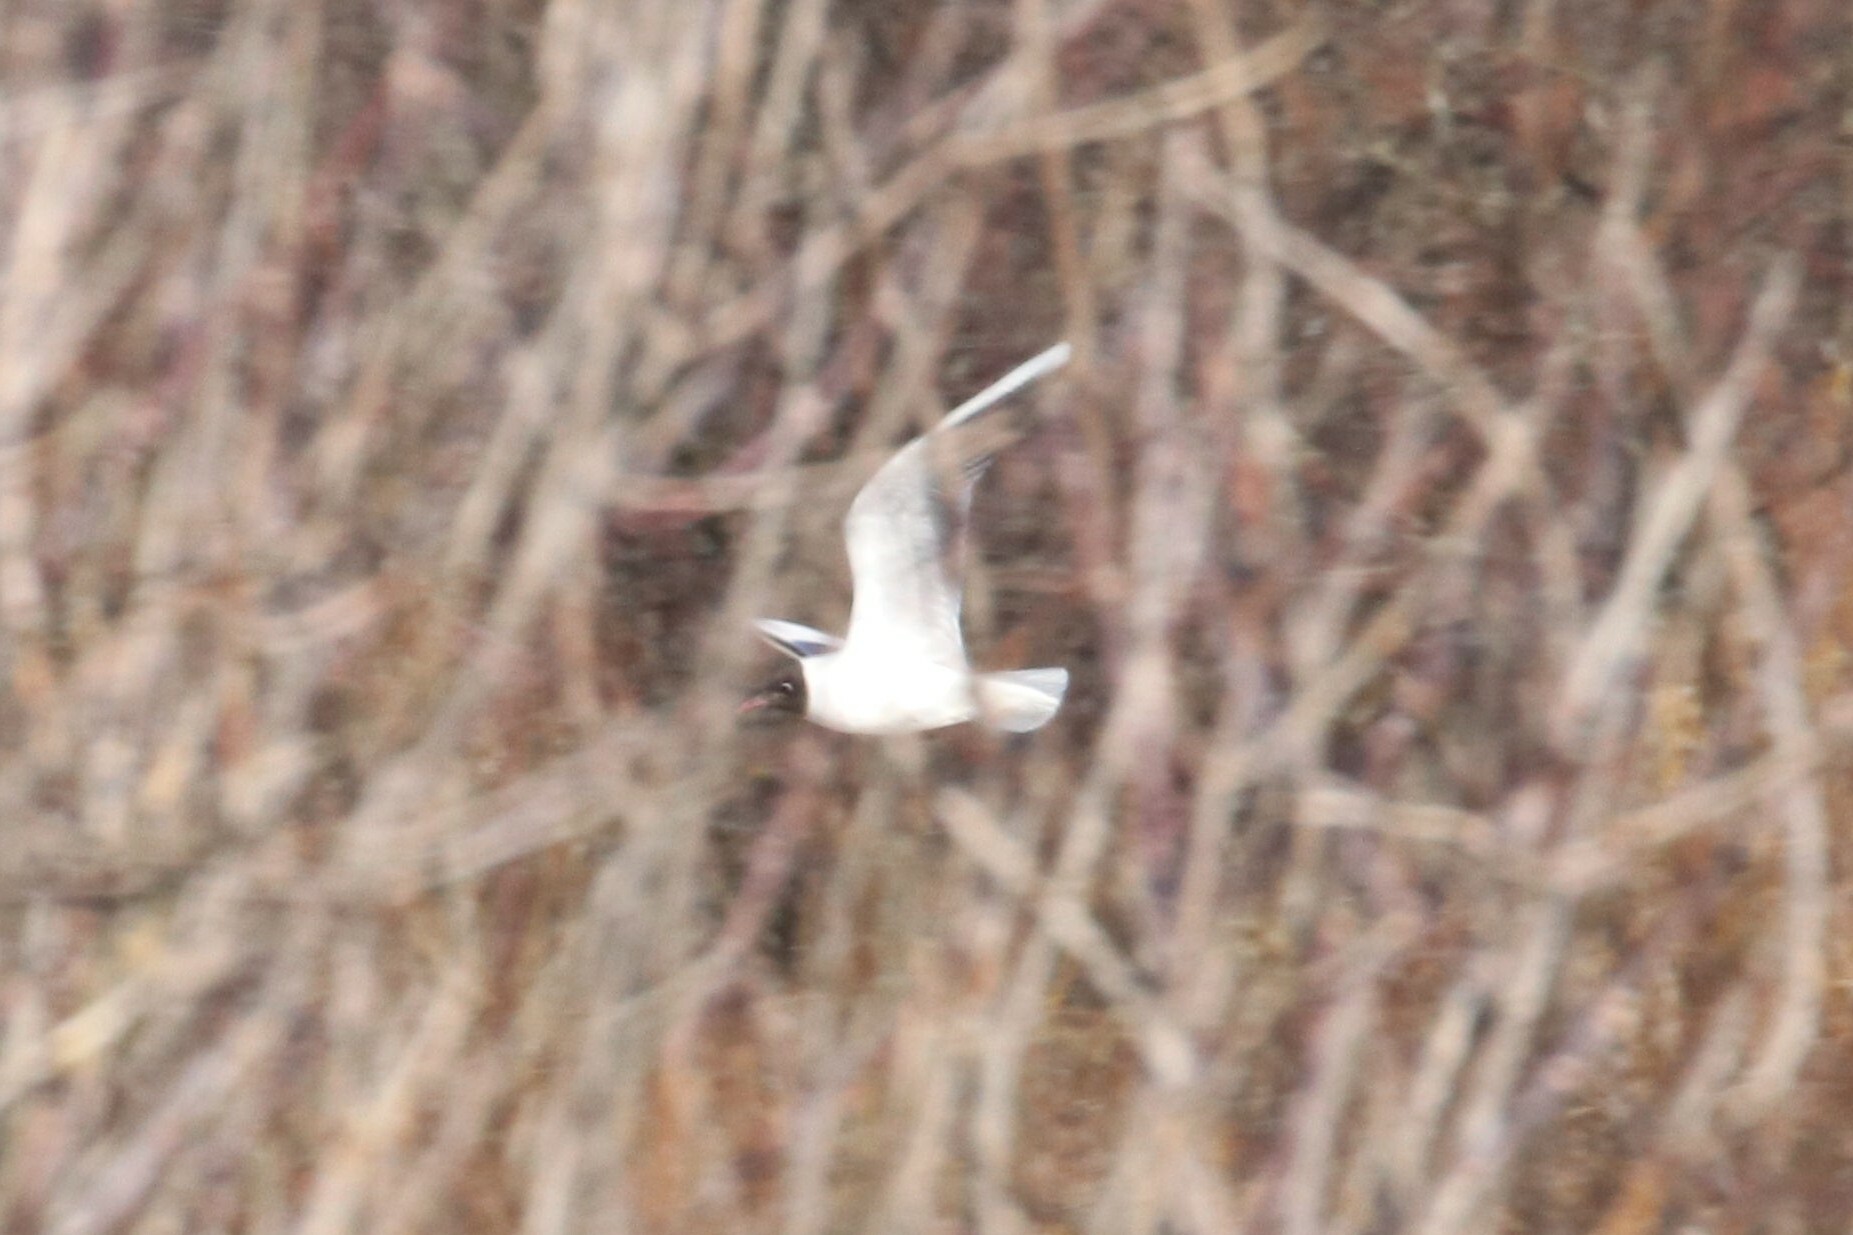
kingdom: Animalia
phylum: Chordata
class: Aves
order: Charadriiformes
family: Laridae
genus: Chroicocephalus
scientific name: Chroicocephalus ridibundus
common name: Black-headed gull
